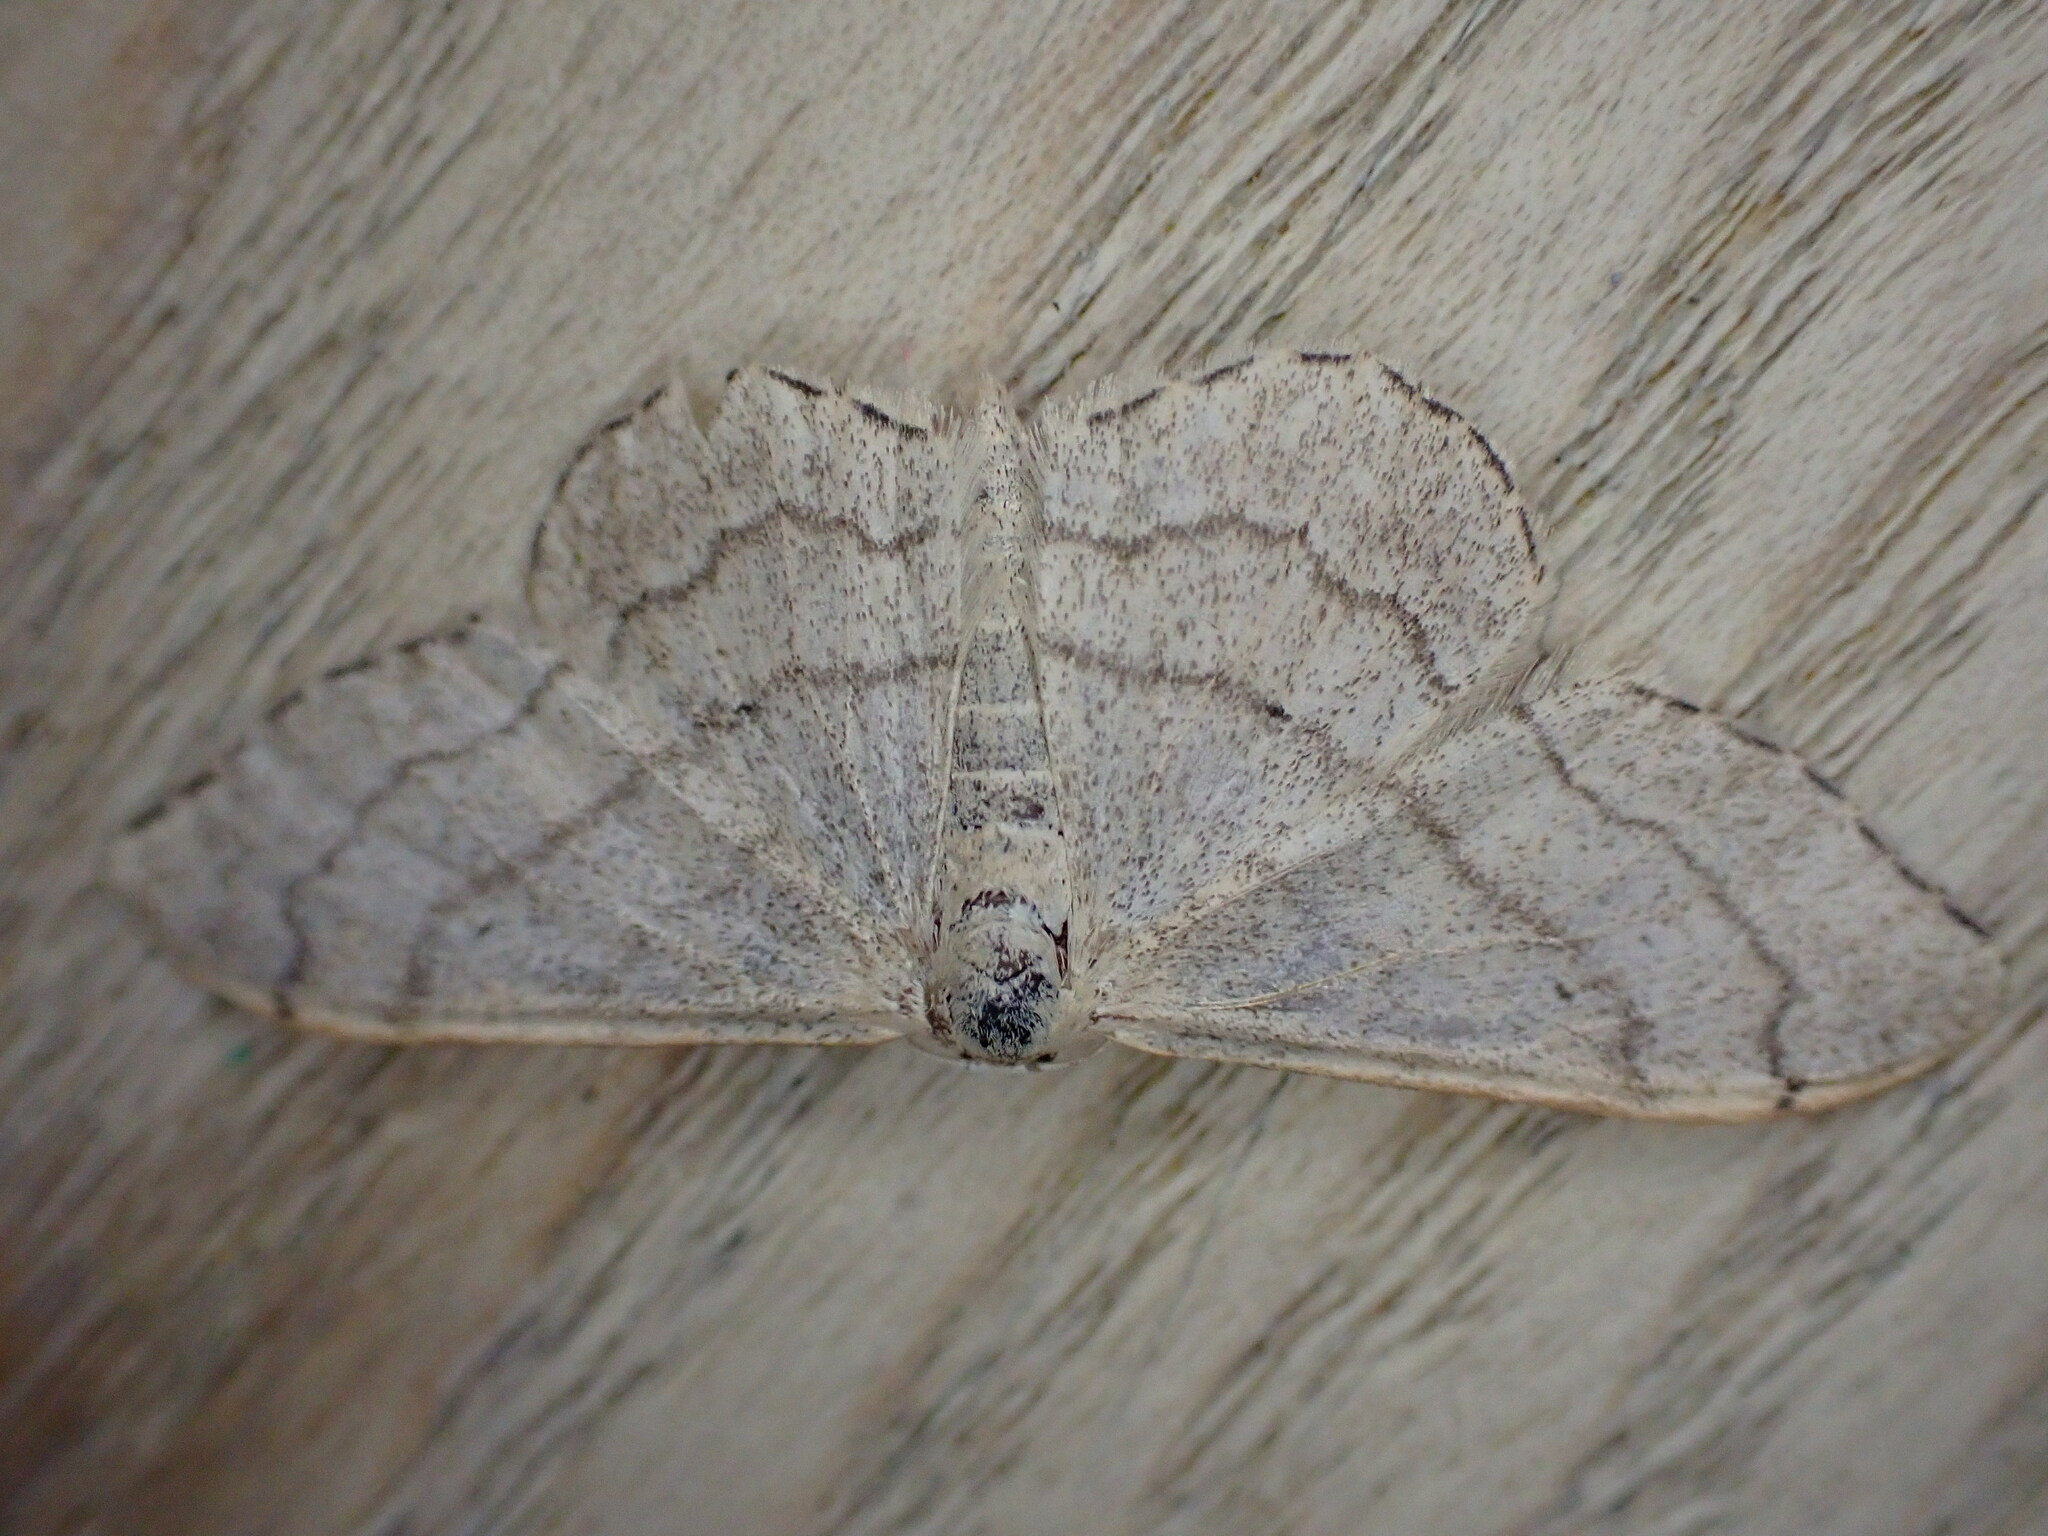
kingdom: Animalia
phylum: Arthropoda
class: Insecta
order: Lepidoptera
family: Geometridae
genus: Idaea
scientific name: Idaea aversata
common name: Riband wave
